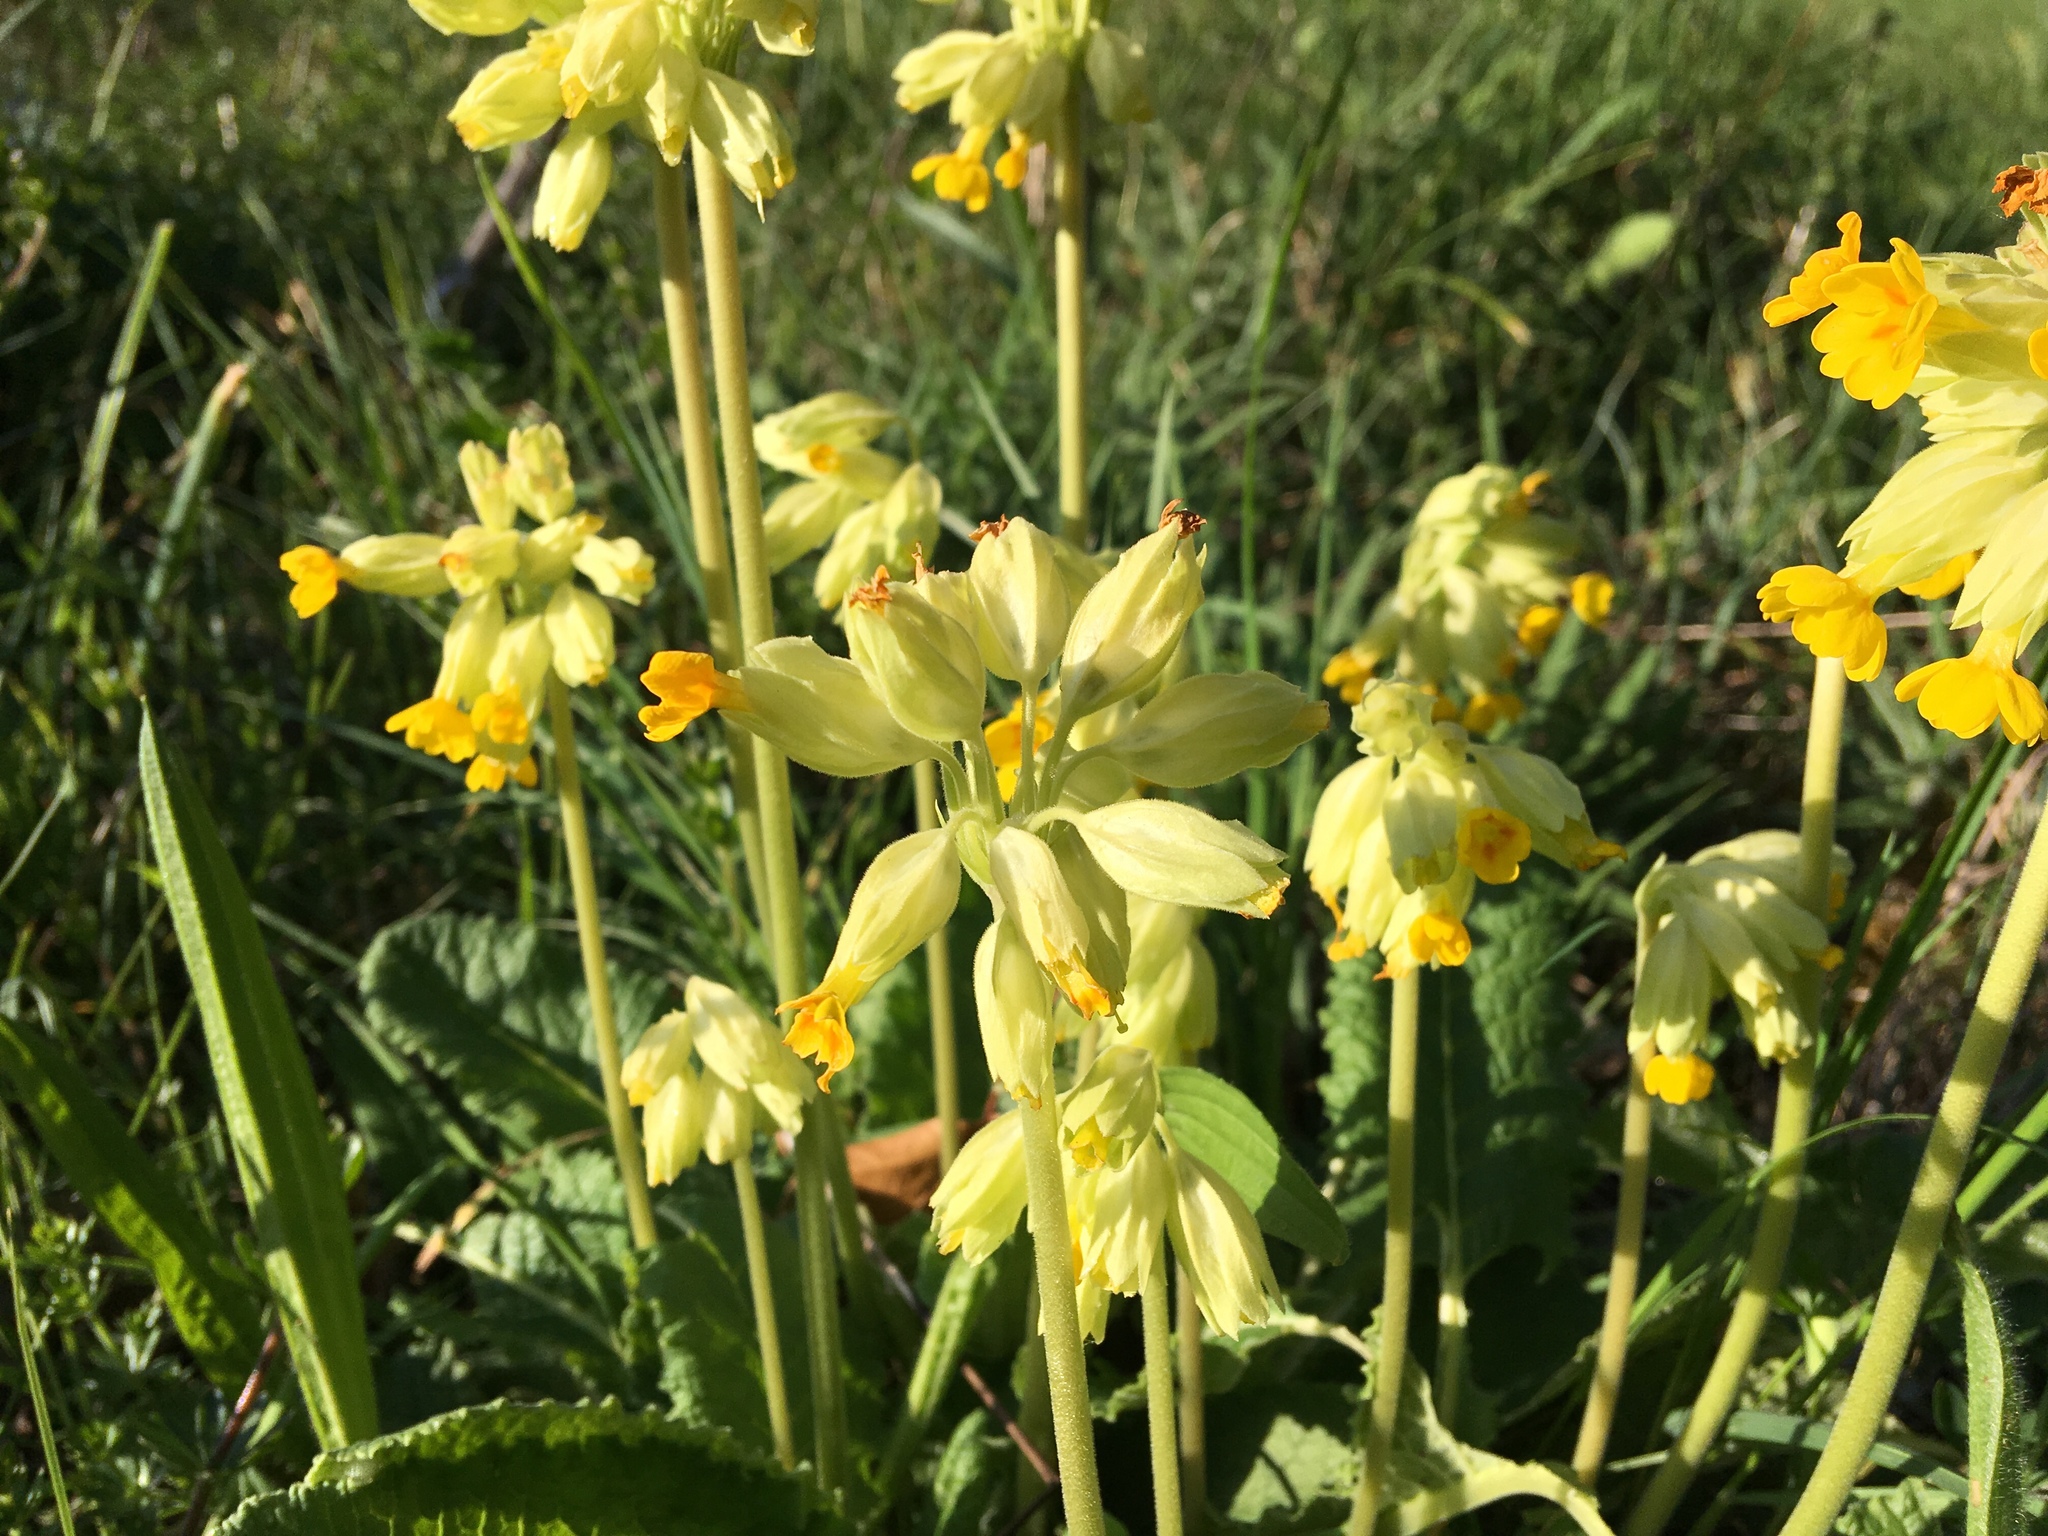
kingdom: Plantae
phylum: Tracheophyta
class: Magnoliopsida
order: Ericales
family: Primulaceae
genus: Primula
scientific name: Primula veris
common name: Cowslip
